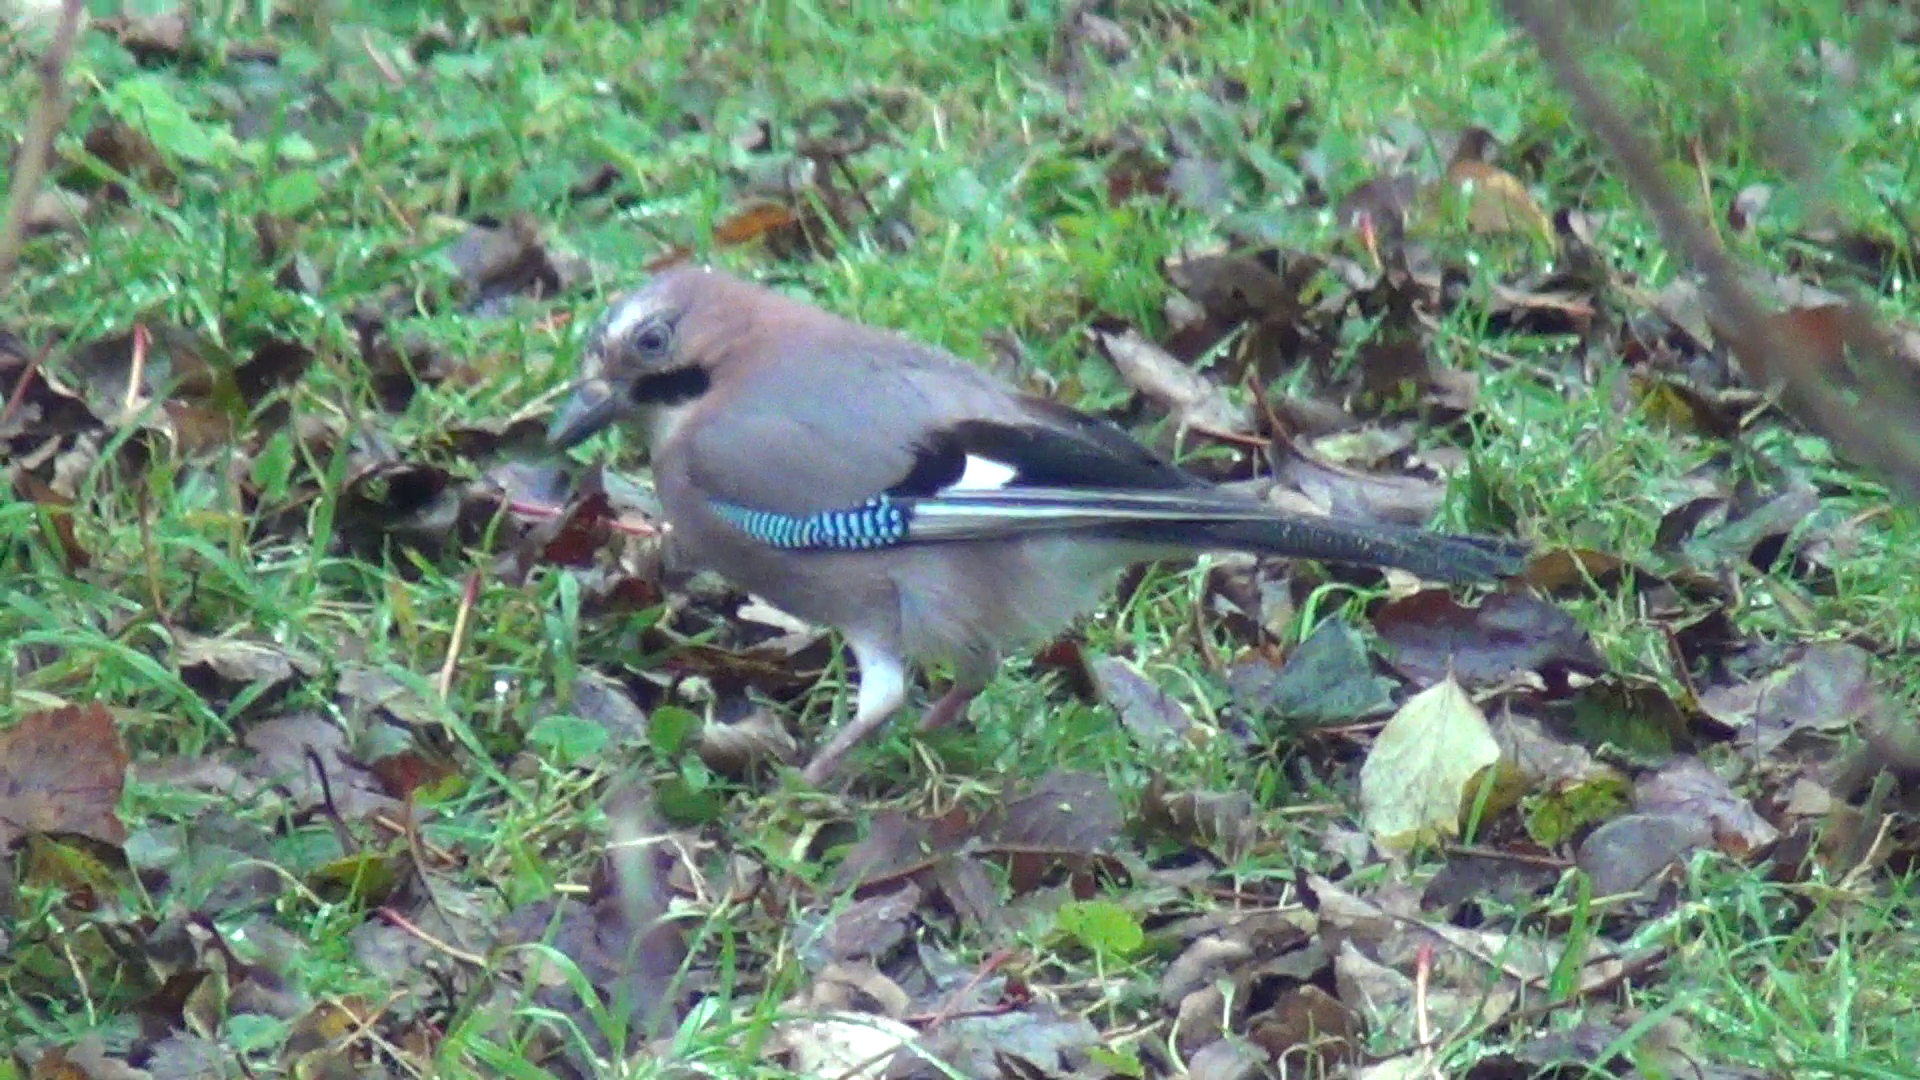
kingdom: Animalia
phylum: Chordata
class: Aves
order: Passeriformes
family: Corvidae
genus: Garrulus
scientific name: Garrulus glandarius
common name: Eurasian jay
